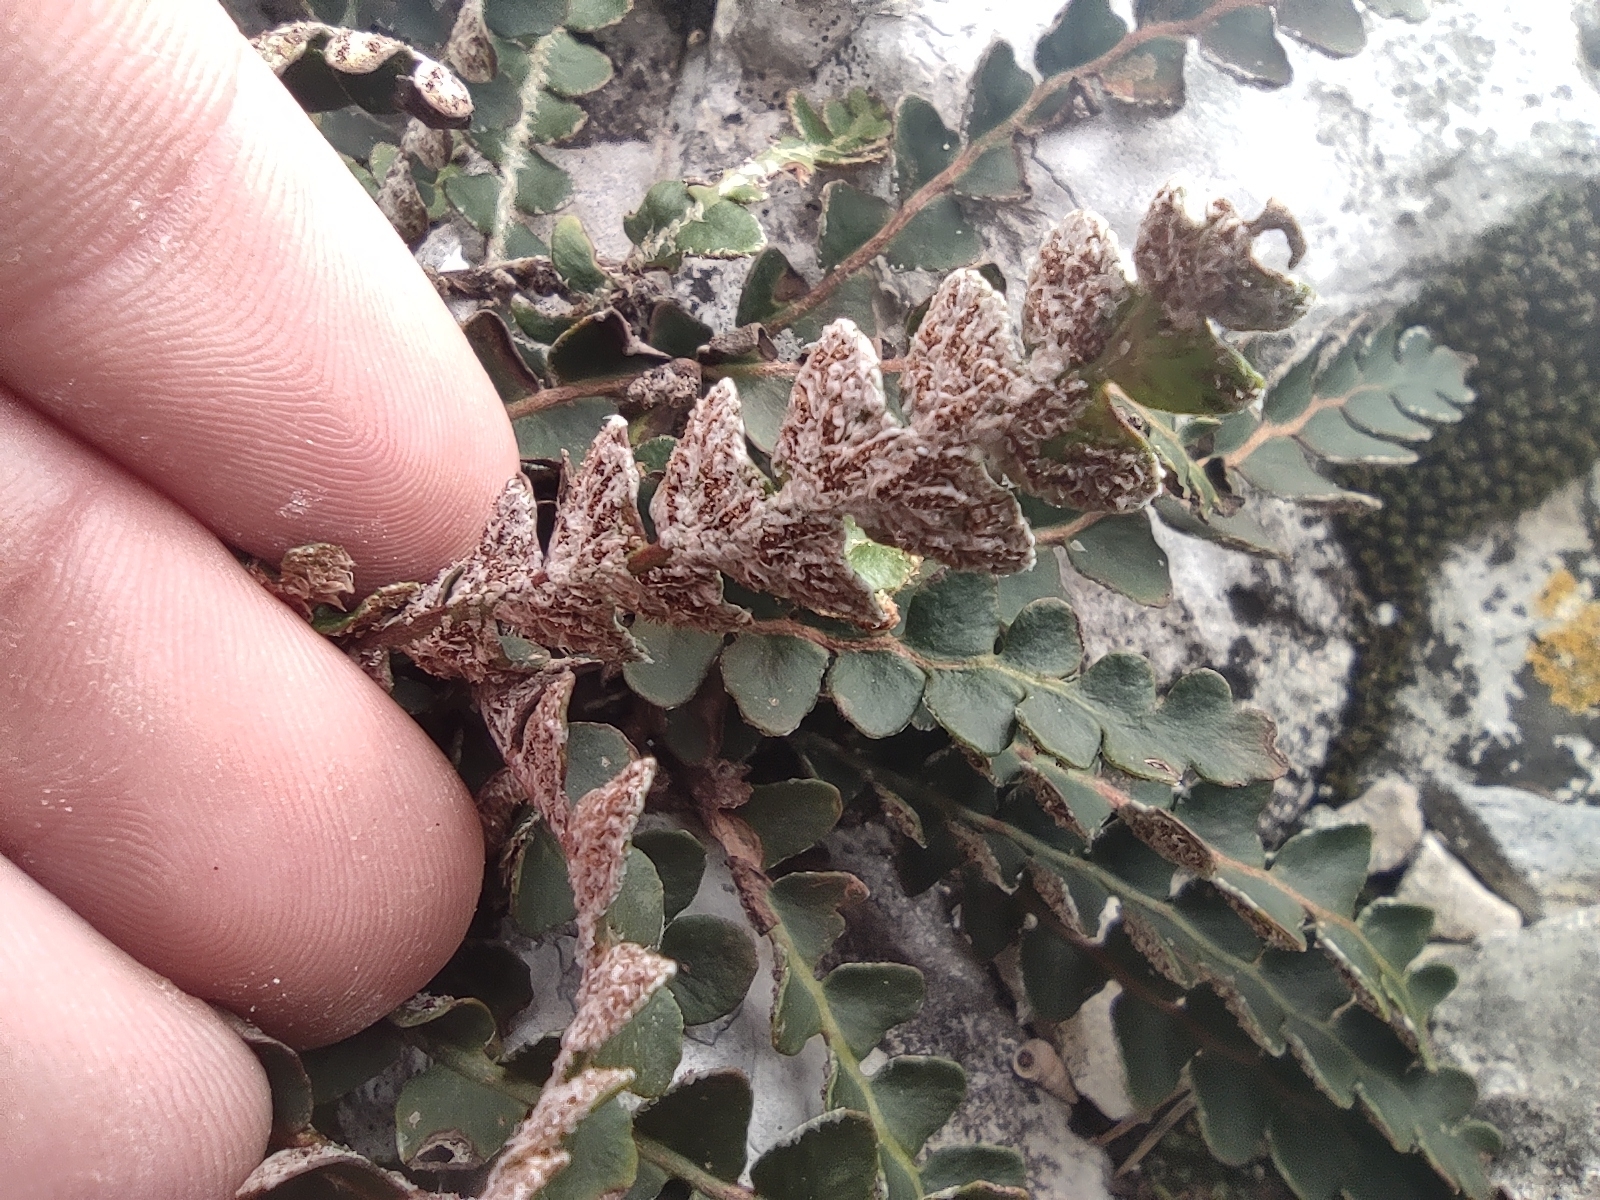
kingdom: Plantae
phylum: Tracheophyta
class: Polypodiopsida
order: Polypodiales
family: Aspleniaceae
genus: Asplenium
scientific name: Asplenium ceterach
